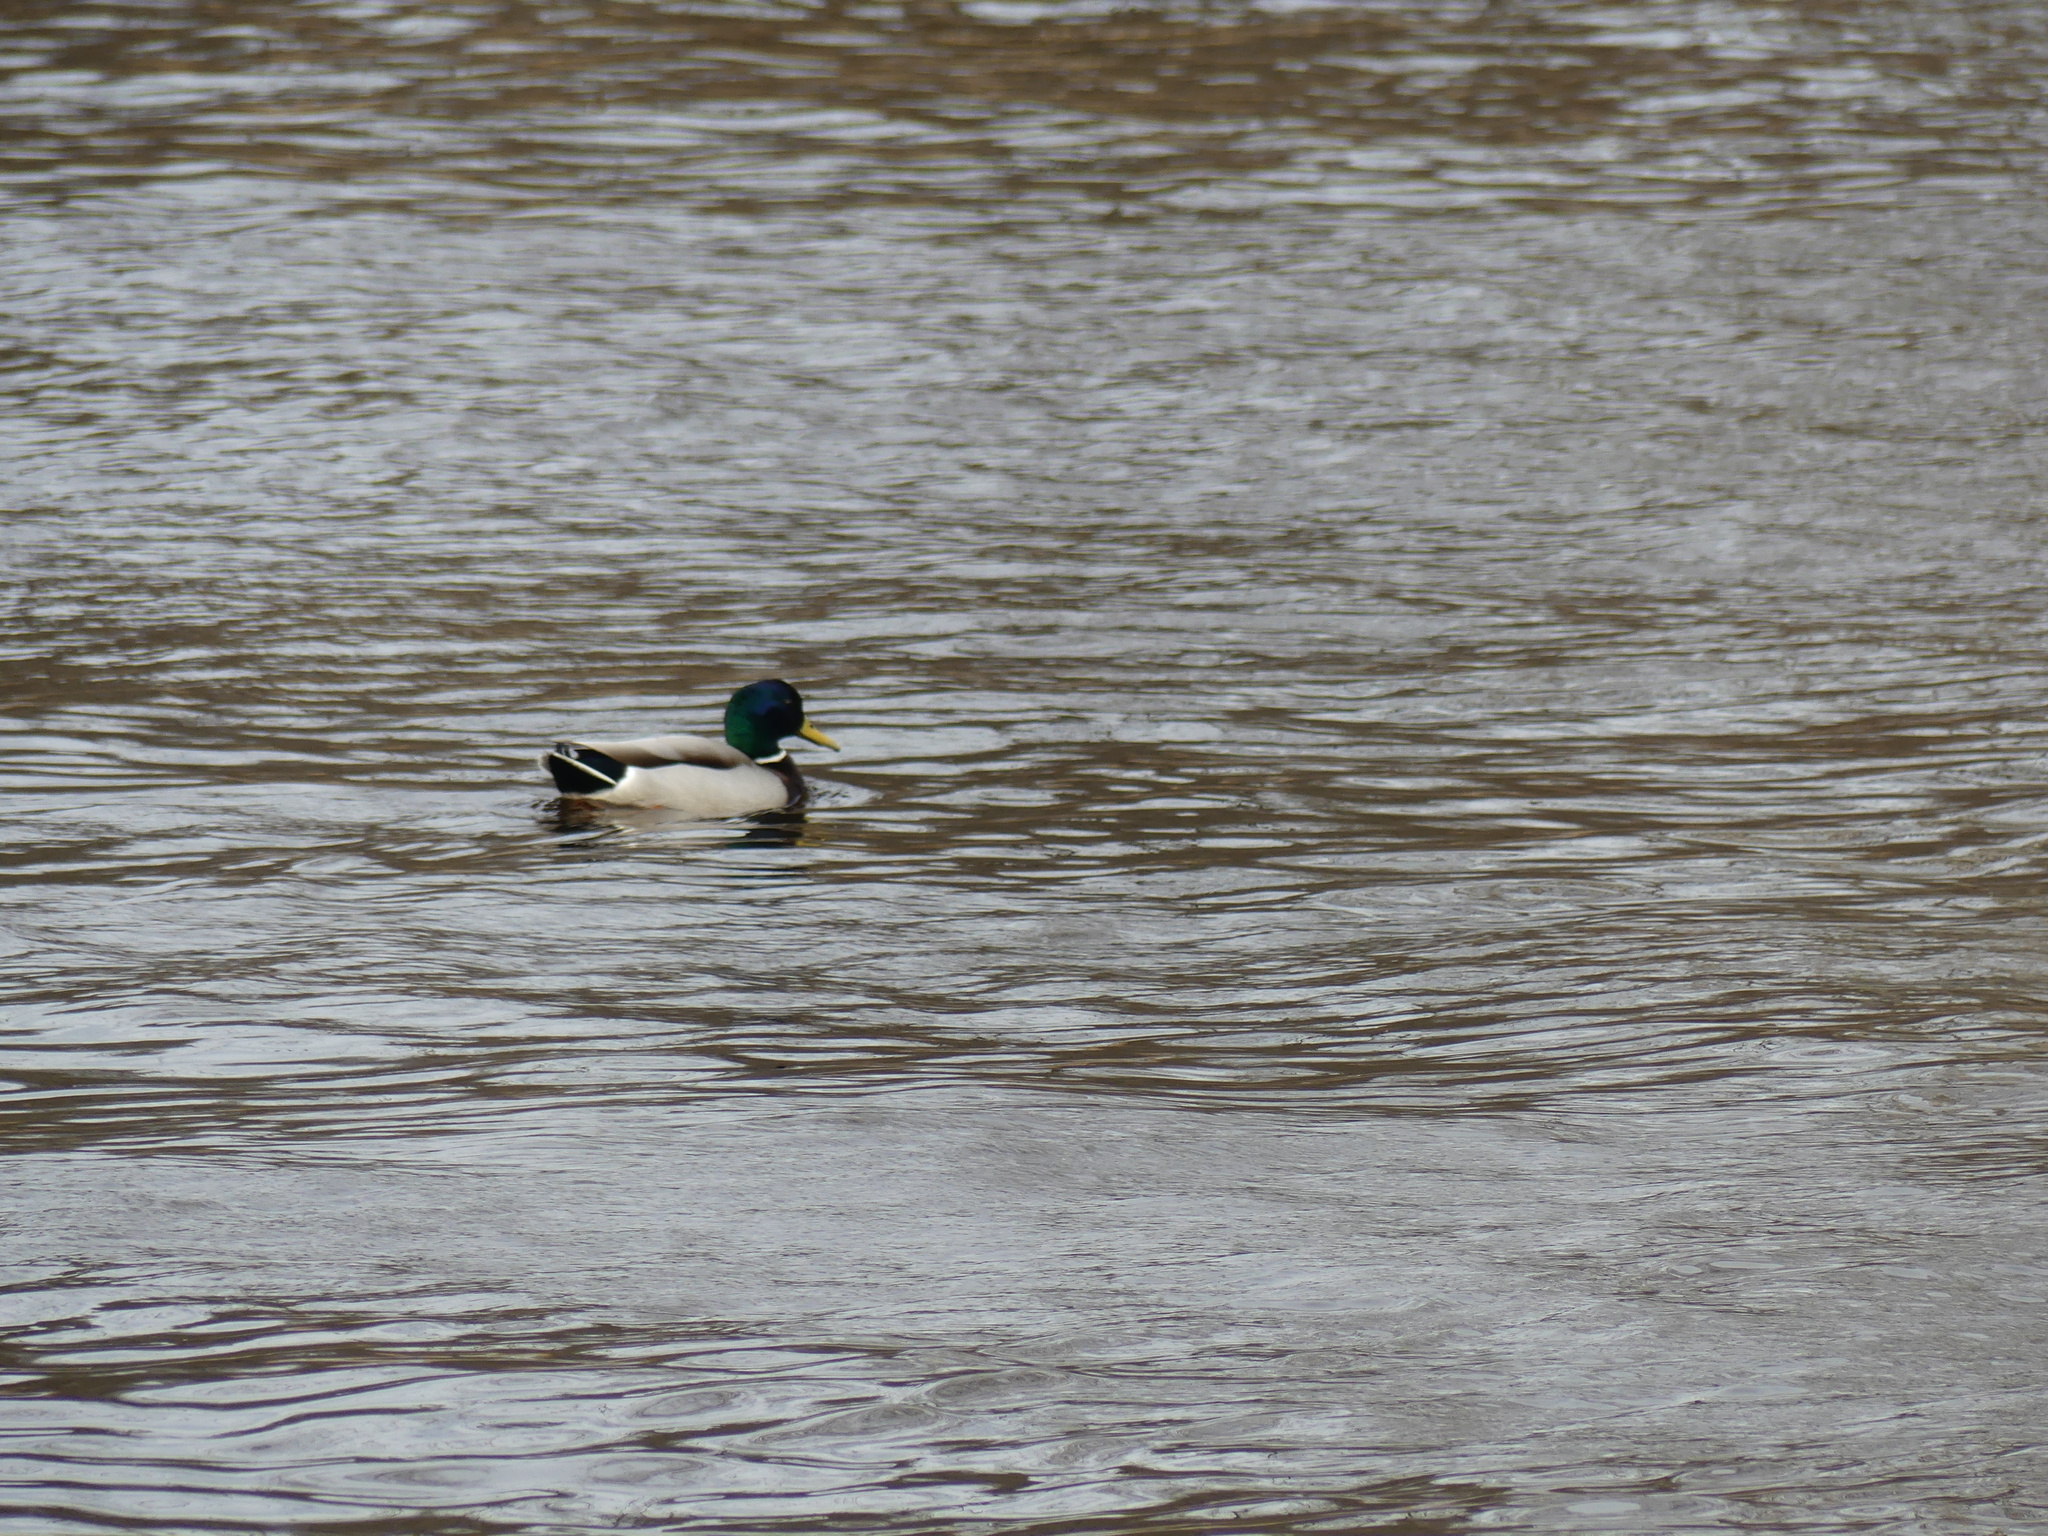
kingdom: Animalia
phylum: Chordata
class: Aves
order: Anseriformes
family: Anatidae
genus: Anas
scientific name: Anas platyrhynchos
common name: Mallard
